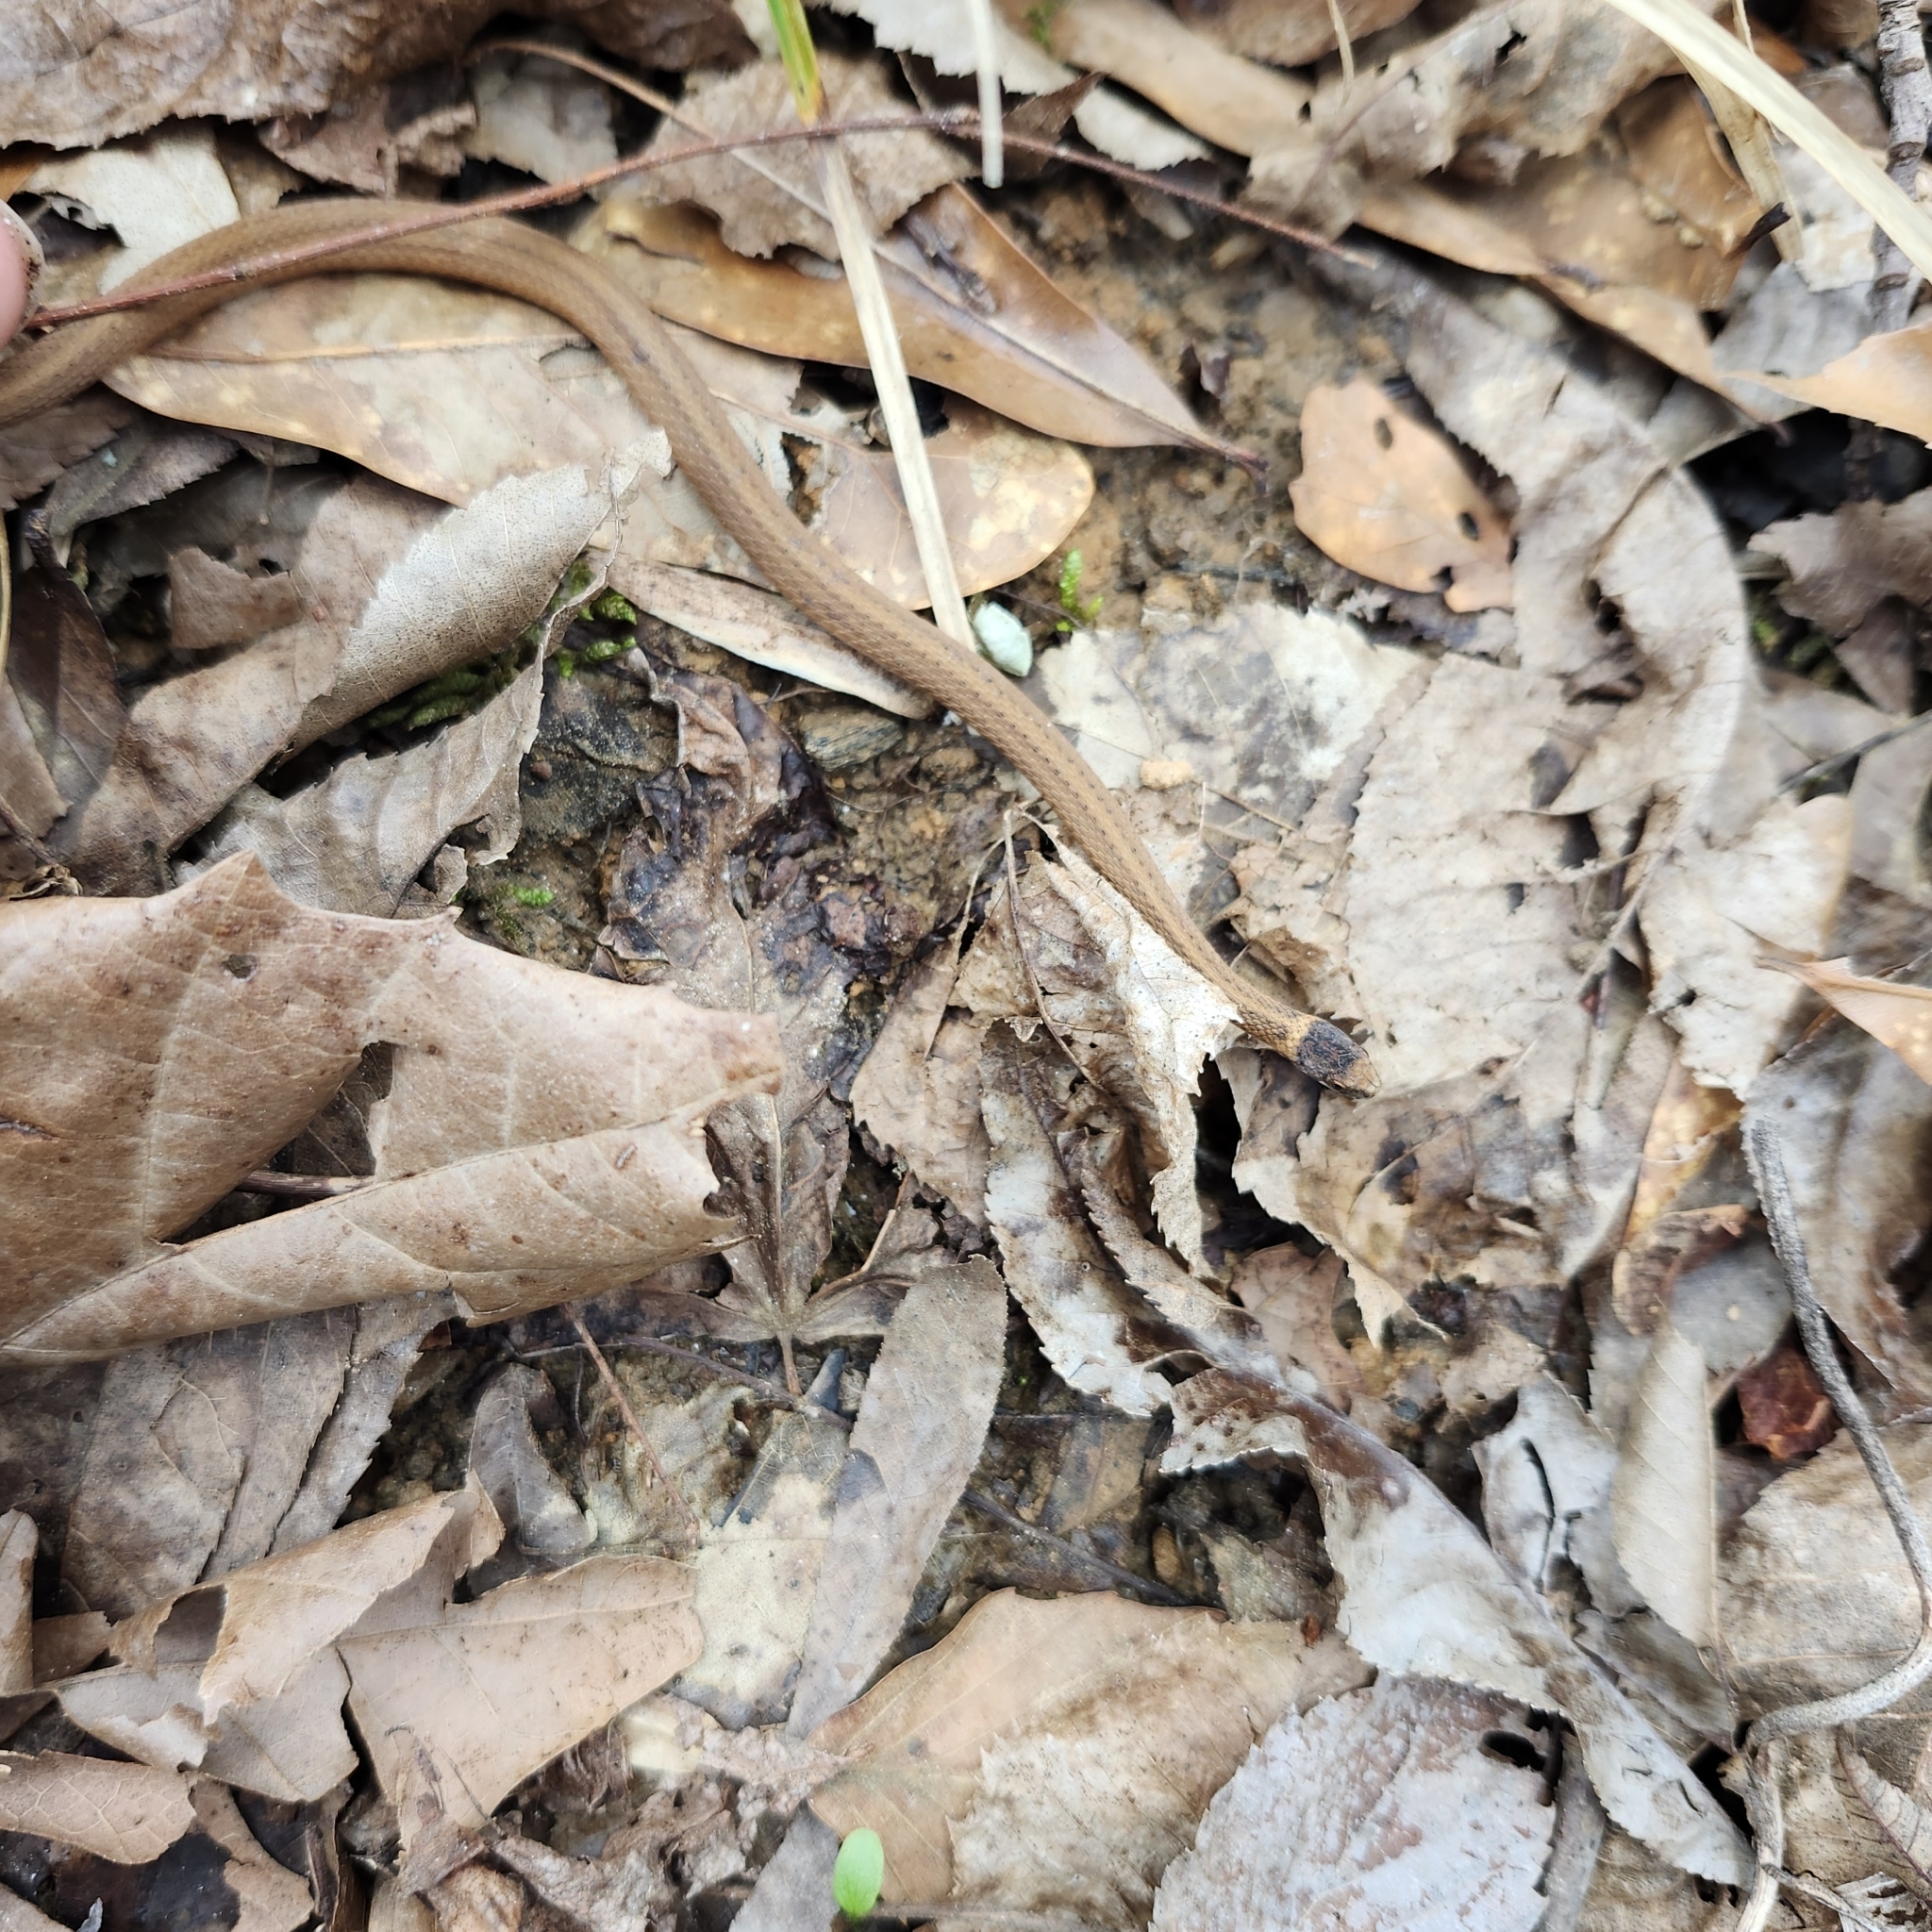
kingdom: Animalia
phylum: Chordata
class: Squamata
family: Colubridae
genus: Storeria
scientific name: Storeria occipitomaculata
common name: Redbelly snake
